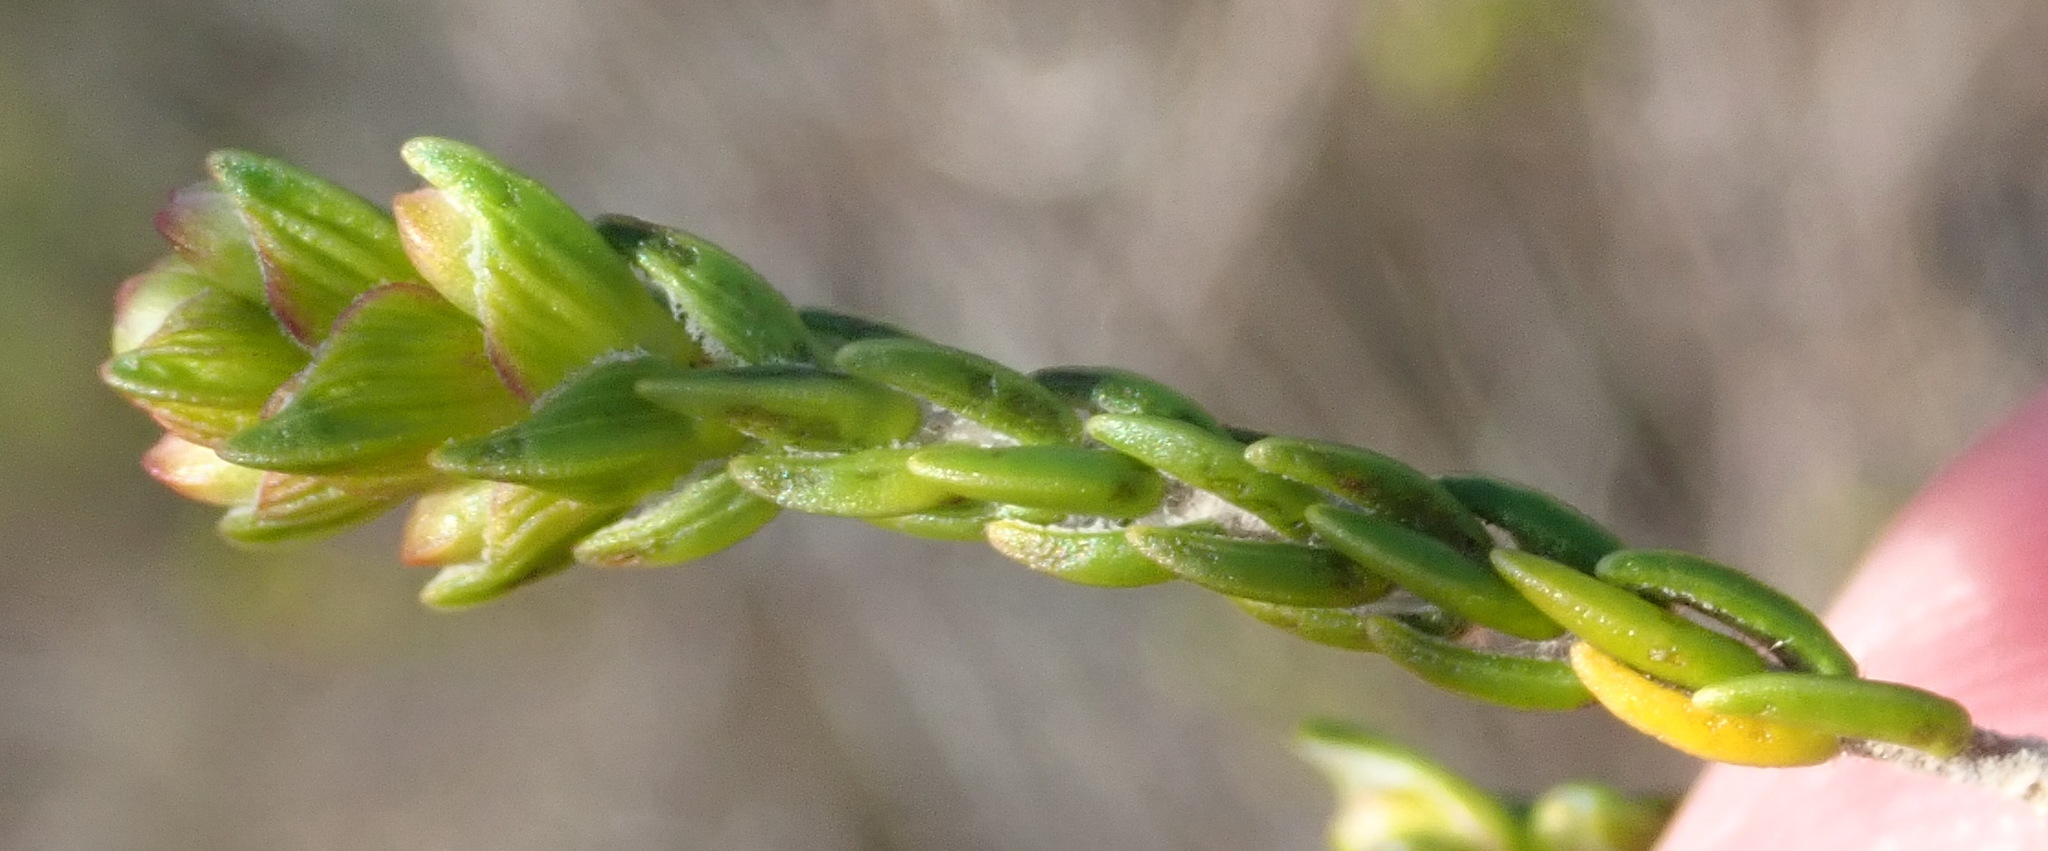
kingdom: Plantae
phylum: Tracheophyta
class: Magnoliopsida
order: Malvales
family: Thymelaeaceae
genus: Passerina
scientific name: Passerina corymbosa
